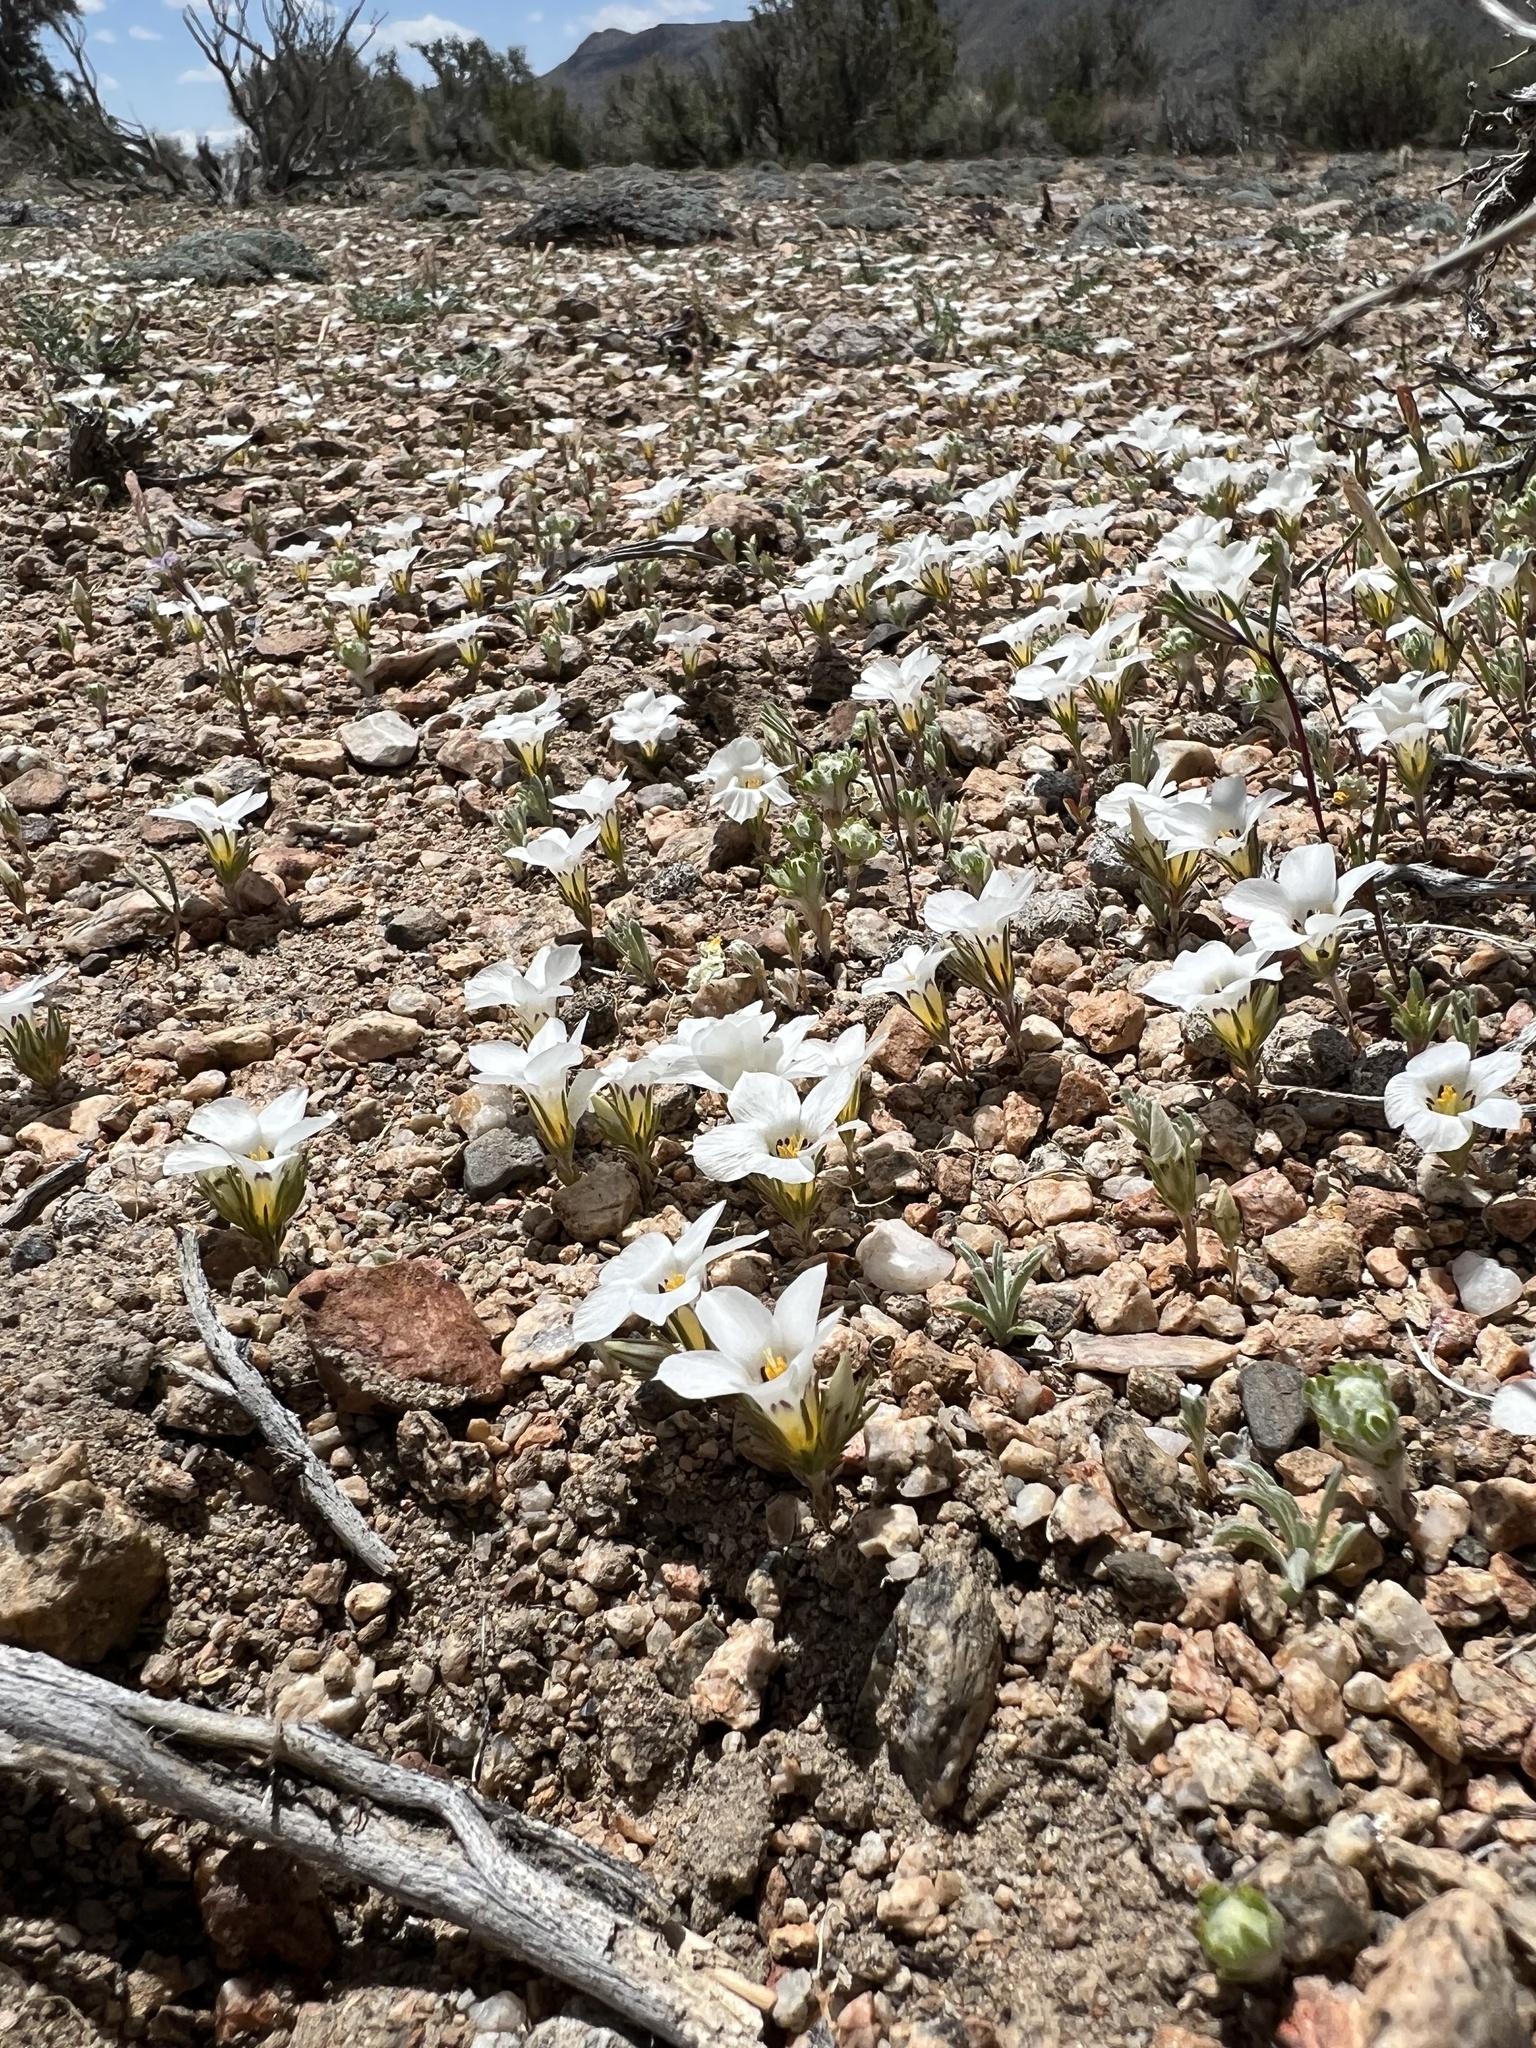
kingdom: Plantae
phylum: Tracheophyta
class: Magnoliopsida
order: Ericales
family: Polemoniaceae
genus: Linanthus
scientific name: Linanthus parryae
